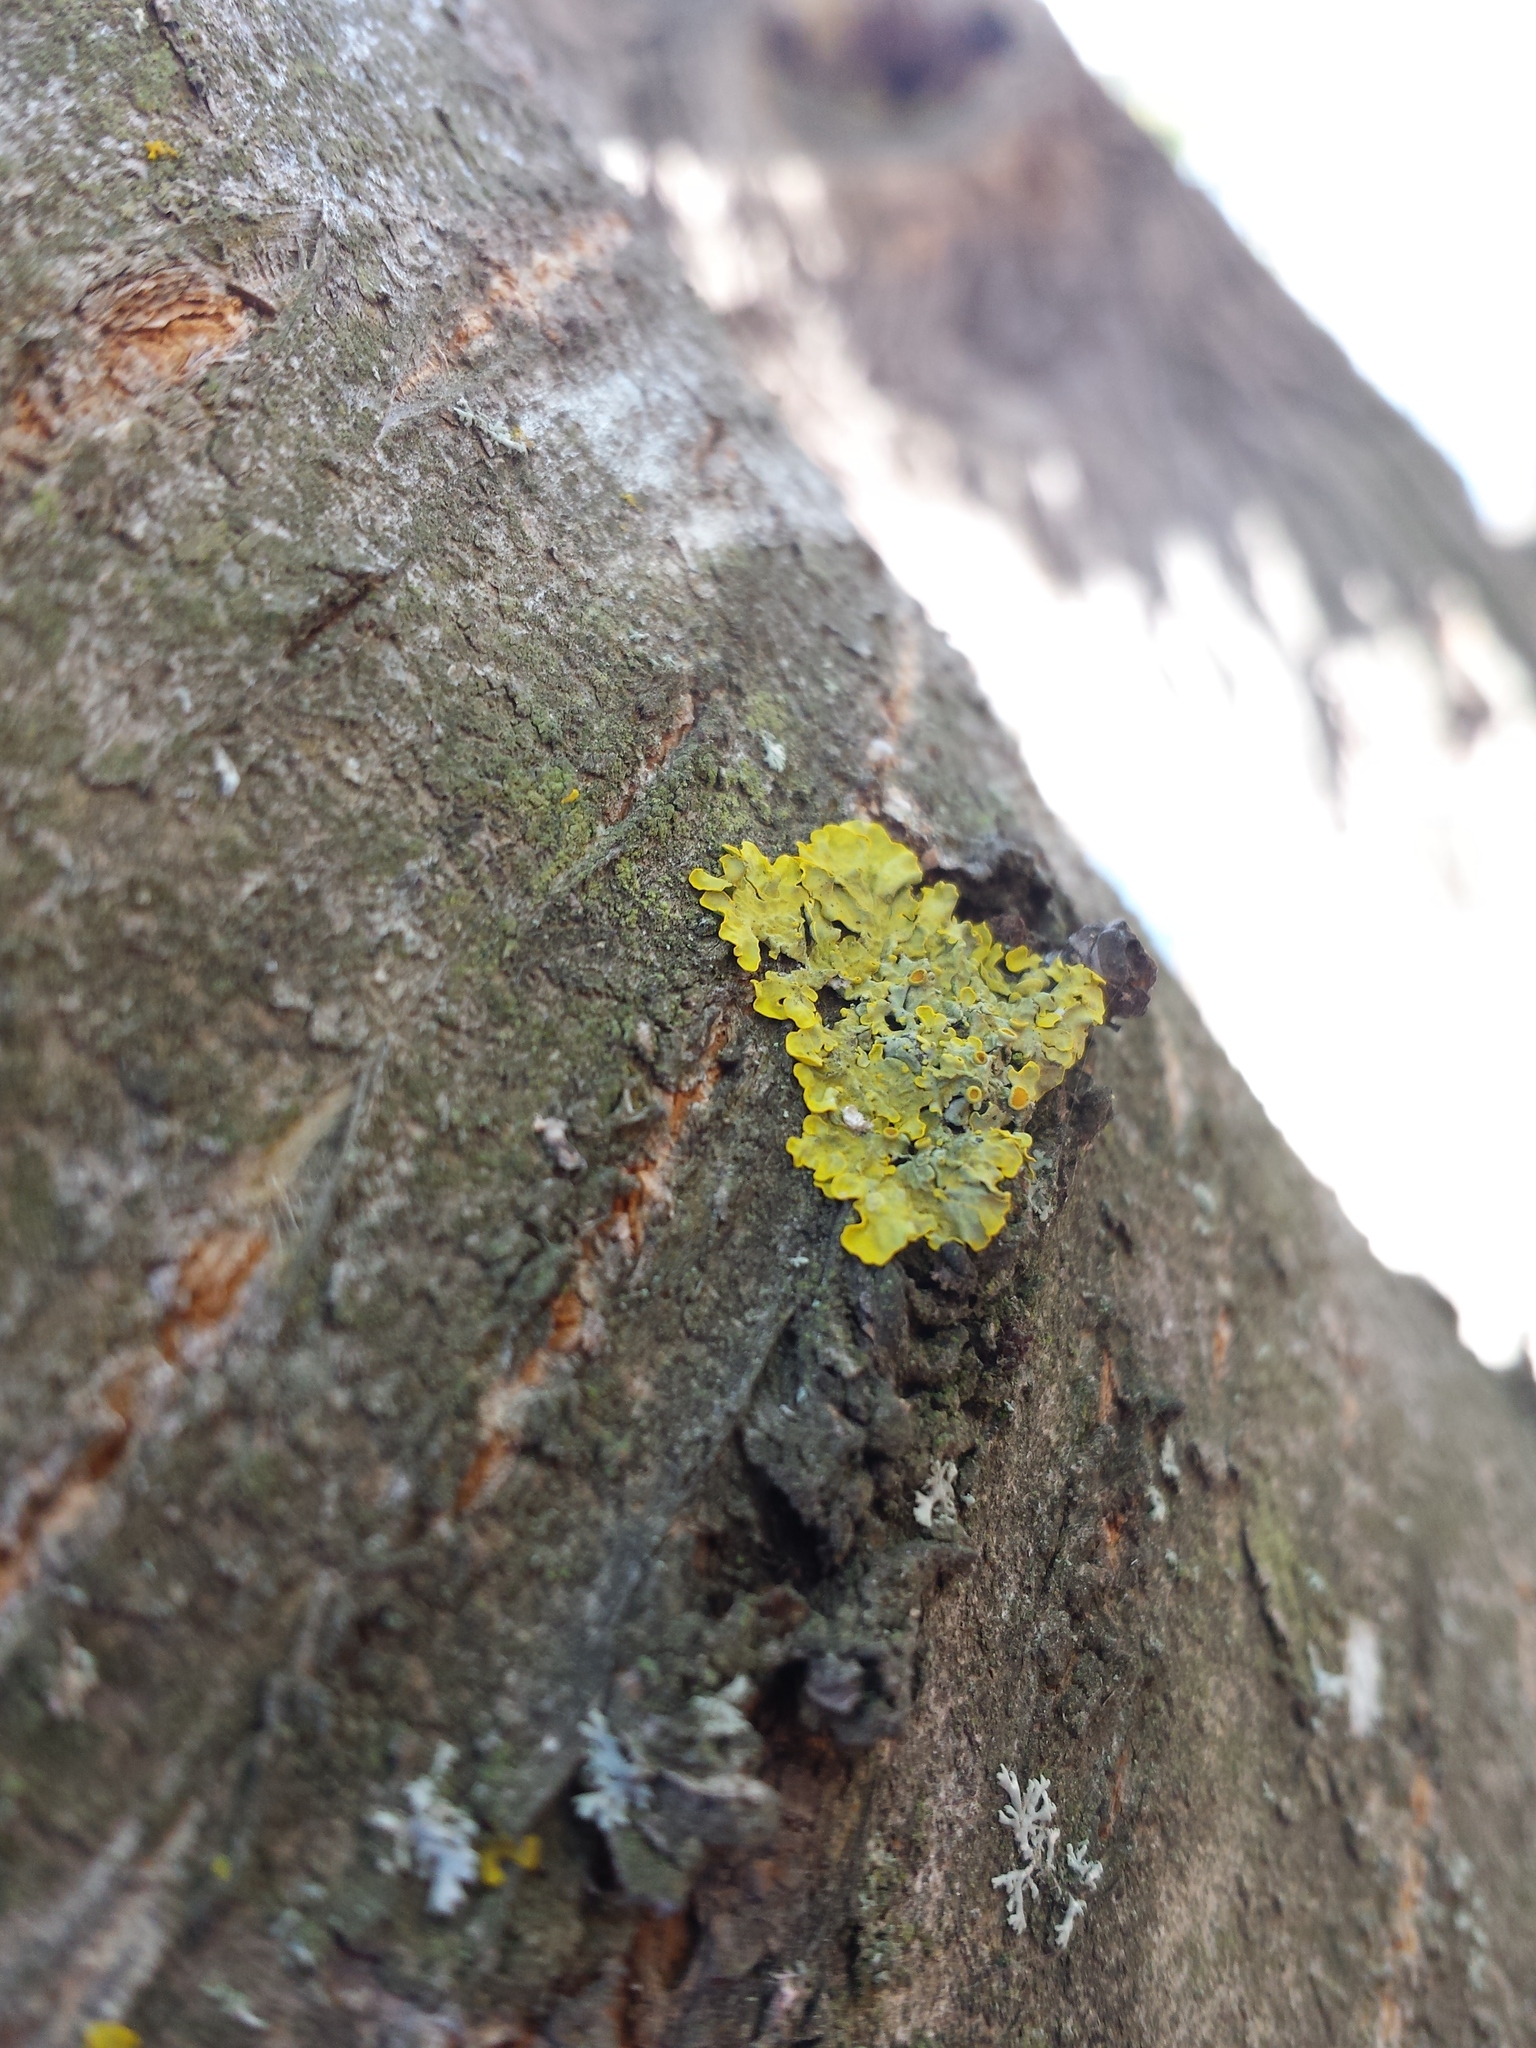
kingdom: Fungi
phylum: Ascomycota
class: Lecanoromycetes
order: Teloschistales
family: Teloschistaceae
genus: Xanthoria
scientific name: Xanthoria parietina
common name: Common orange lichen
